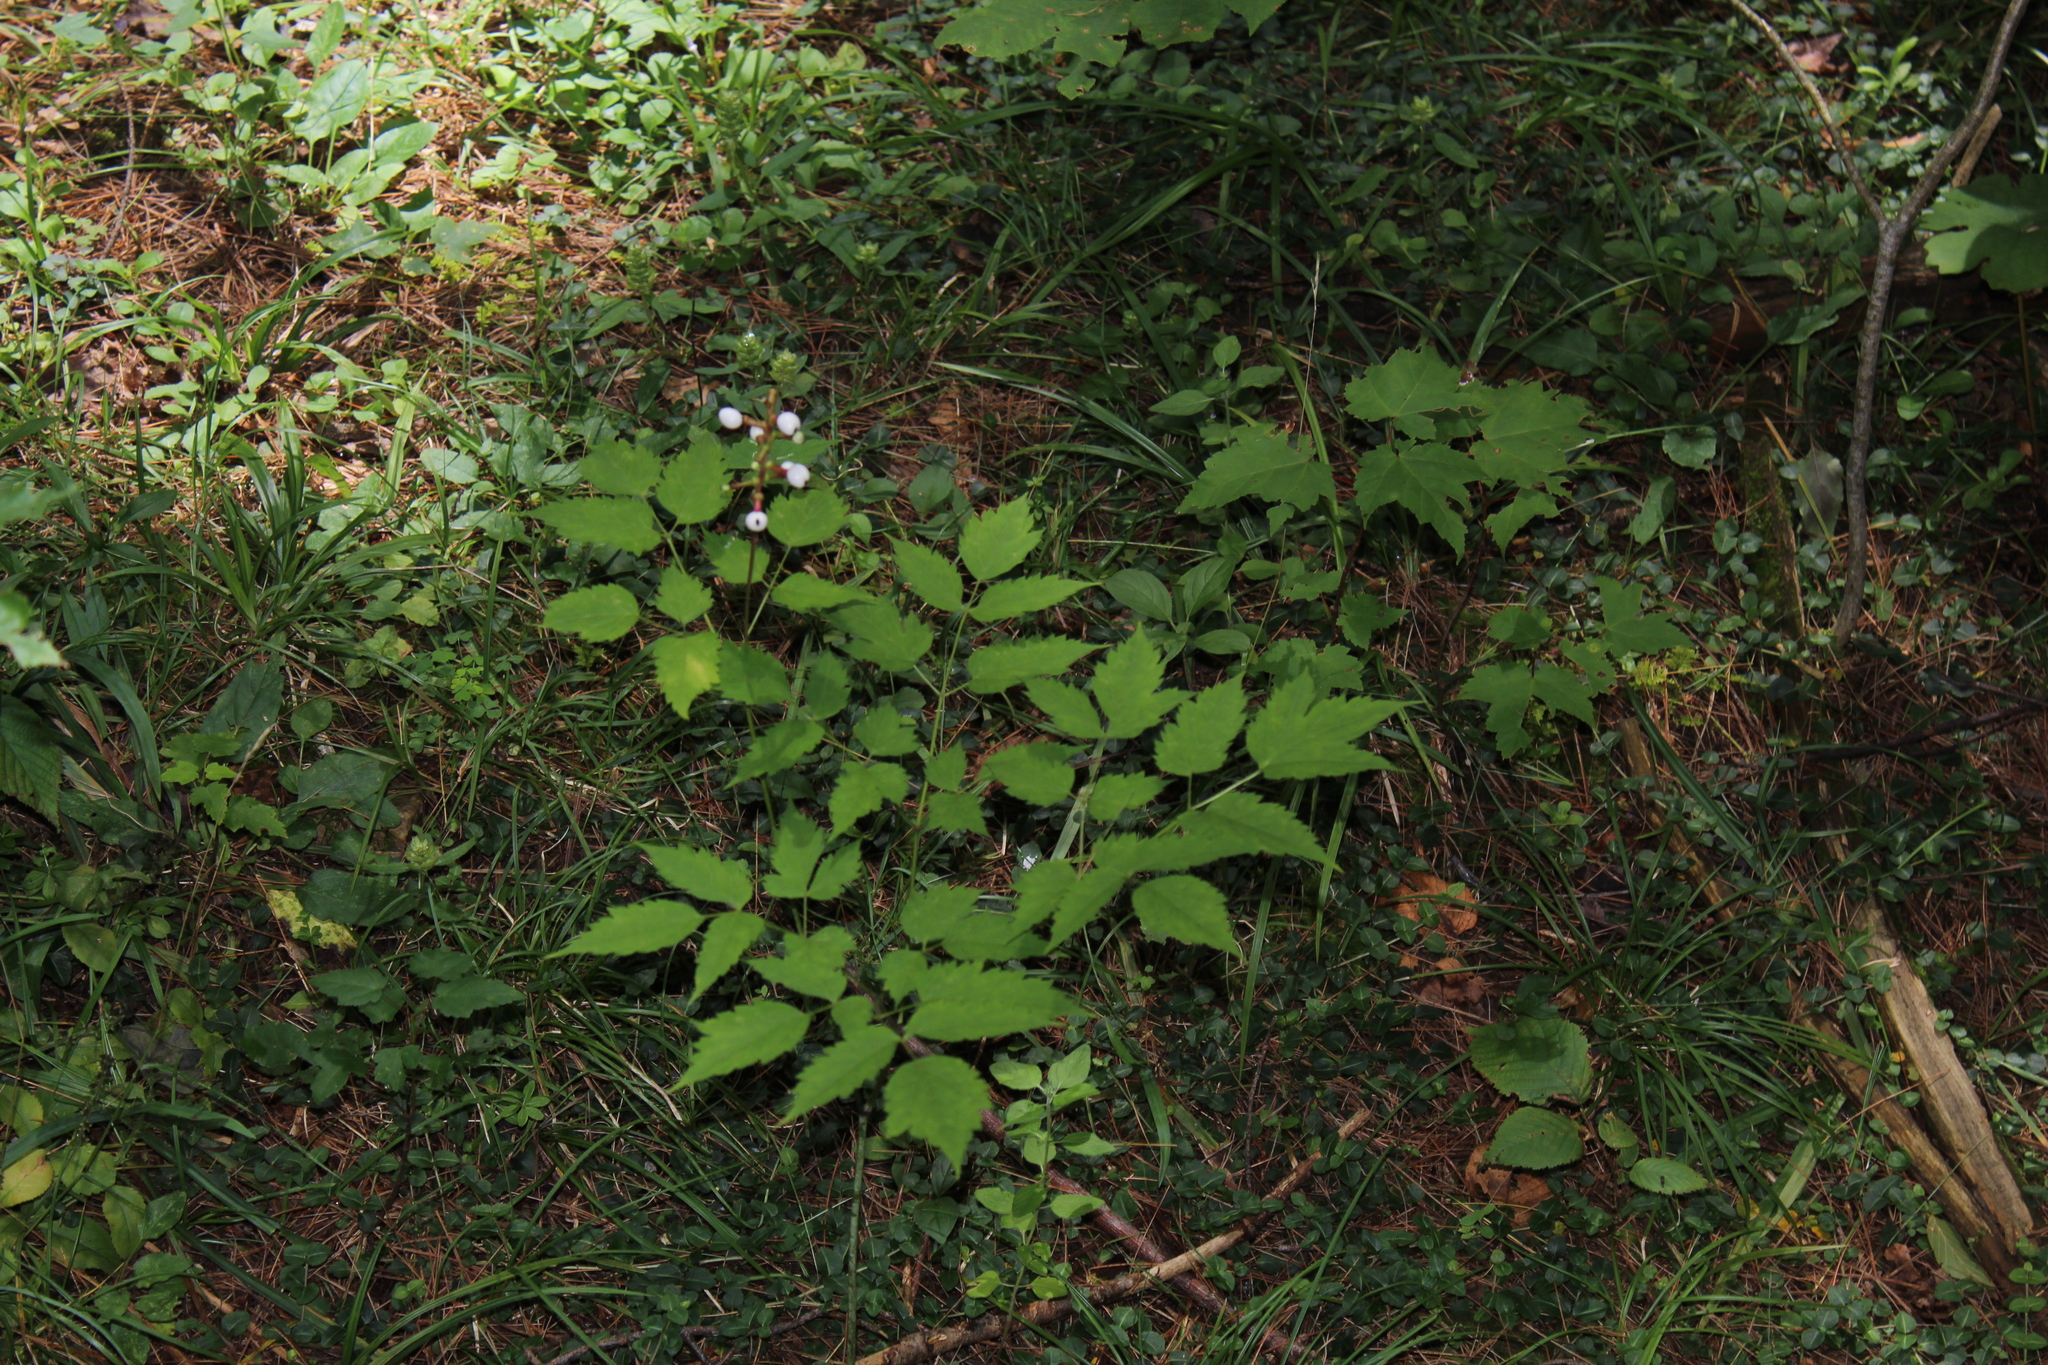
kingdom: Plantae
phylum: Tracheophyta
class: Magnoliopsida
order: Ranunculales
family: Ranunculaceae
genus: Actaea
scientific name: Actaea pachypoda
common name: Doll's-eyes
